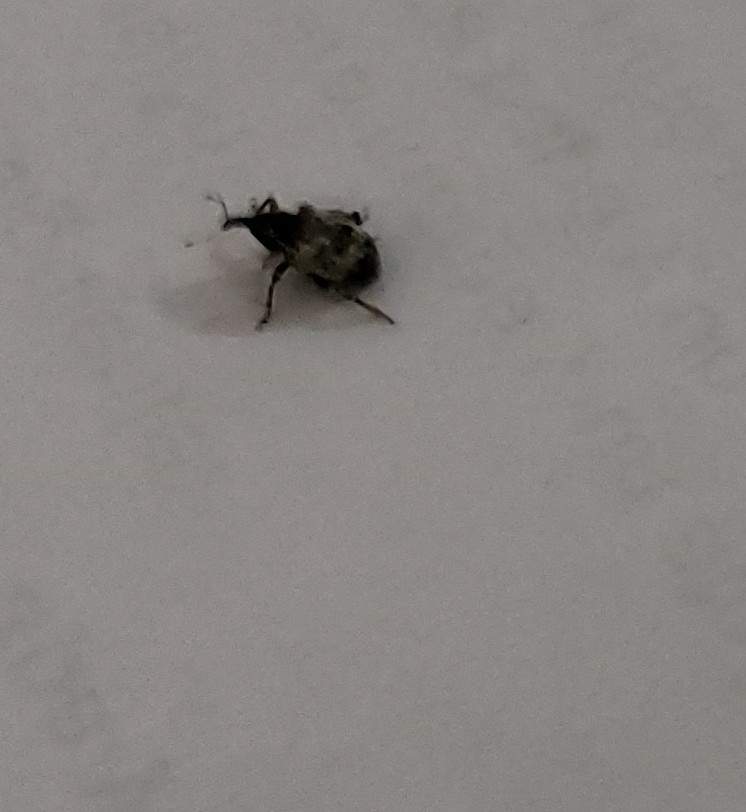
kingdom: Animalia
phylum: Arthropoda
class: Insecta
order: Coleoptera
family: Curculionidae
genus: Conotrachelus
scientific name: Conotrachelus leucophaeatus
